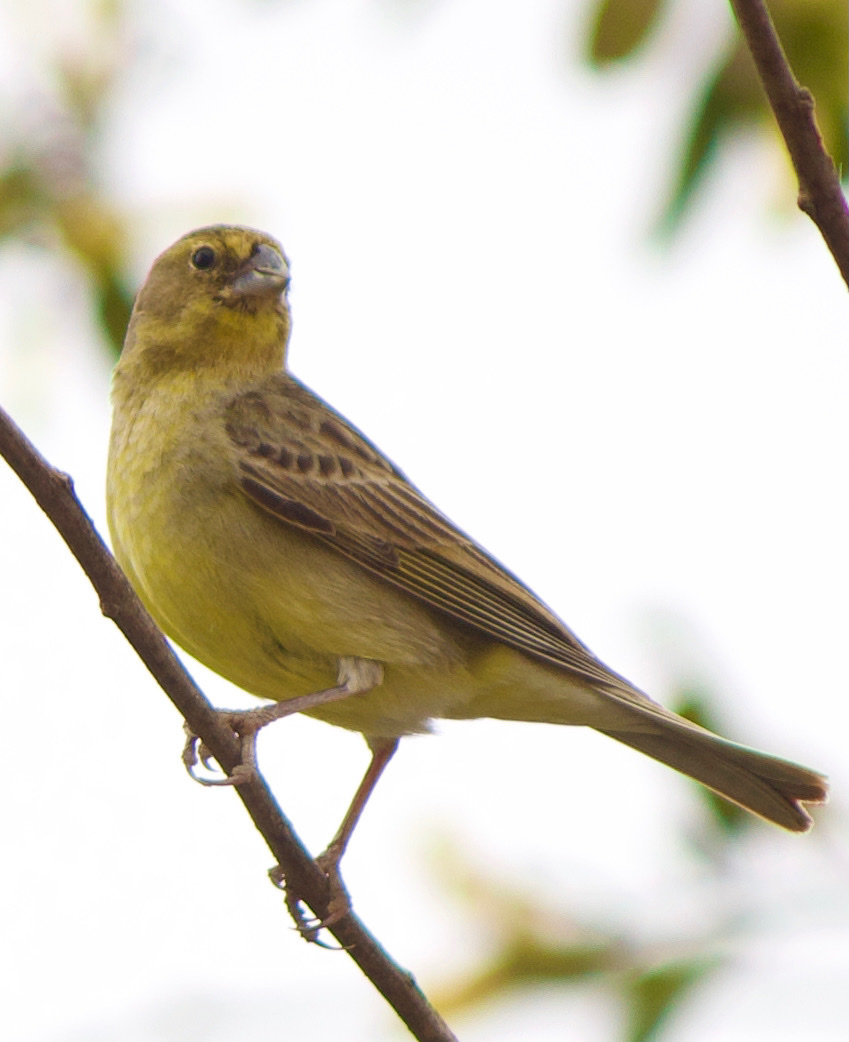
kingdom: Animalia
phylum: Chordata
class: Aves
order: Passeriformes
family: Thraupidae
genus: Sicalis
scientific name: Sicalis luteola
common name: Grassland yellow-finch
